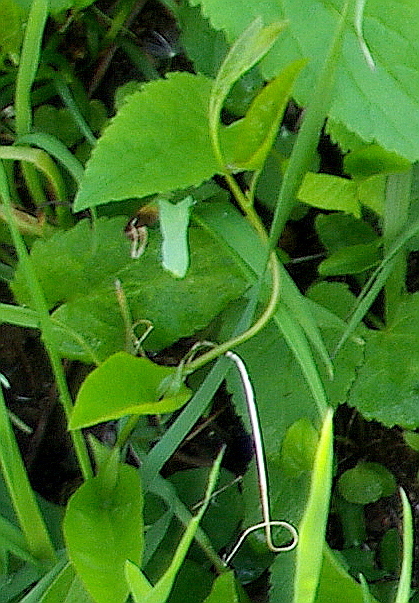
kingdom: Plantae
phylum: Tracheophyta
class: Magnoliopsida
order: Solanales
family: Convolvulaceae
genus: Convolvulus
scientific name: Convolvulus arvensis
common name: Field bindweed
